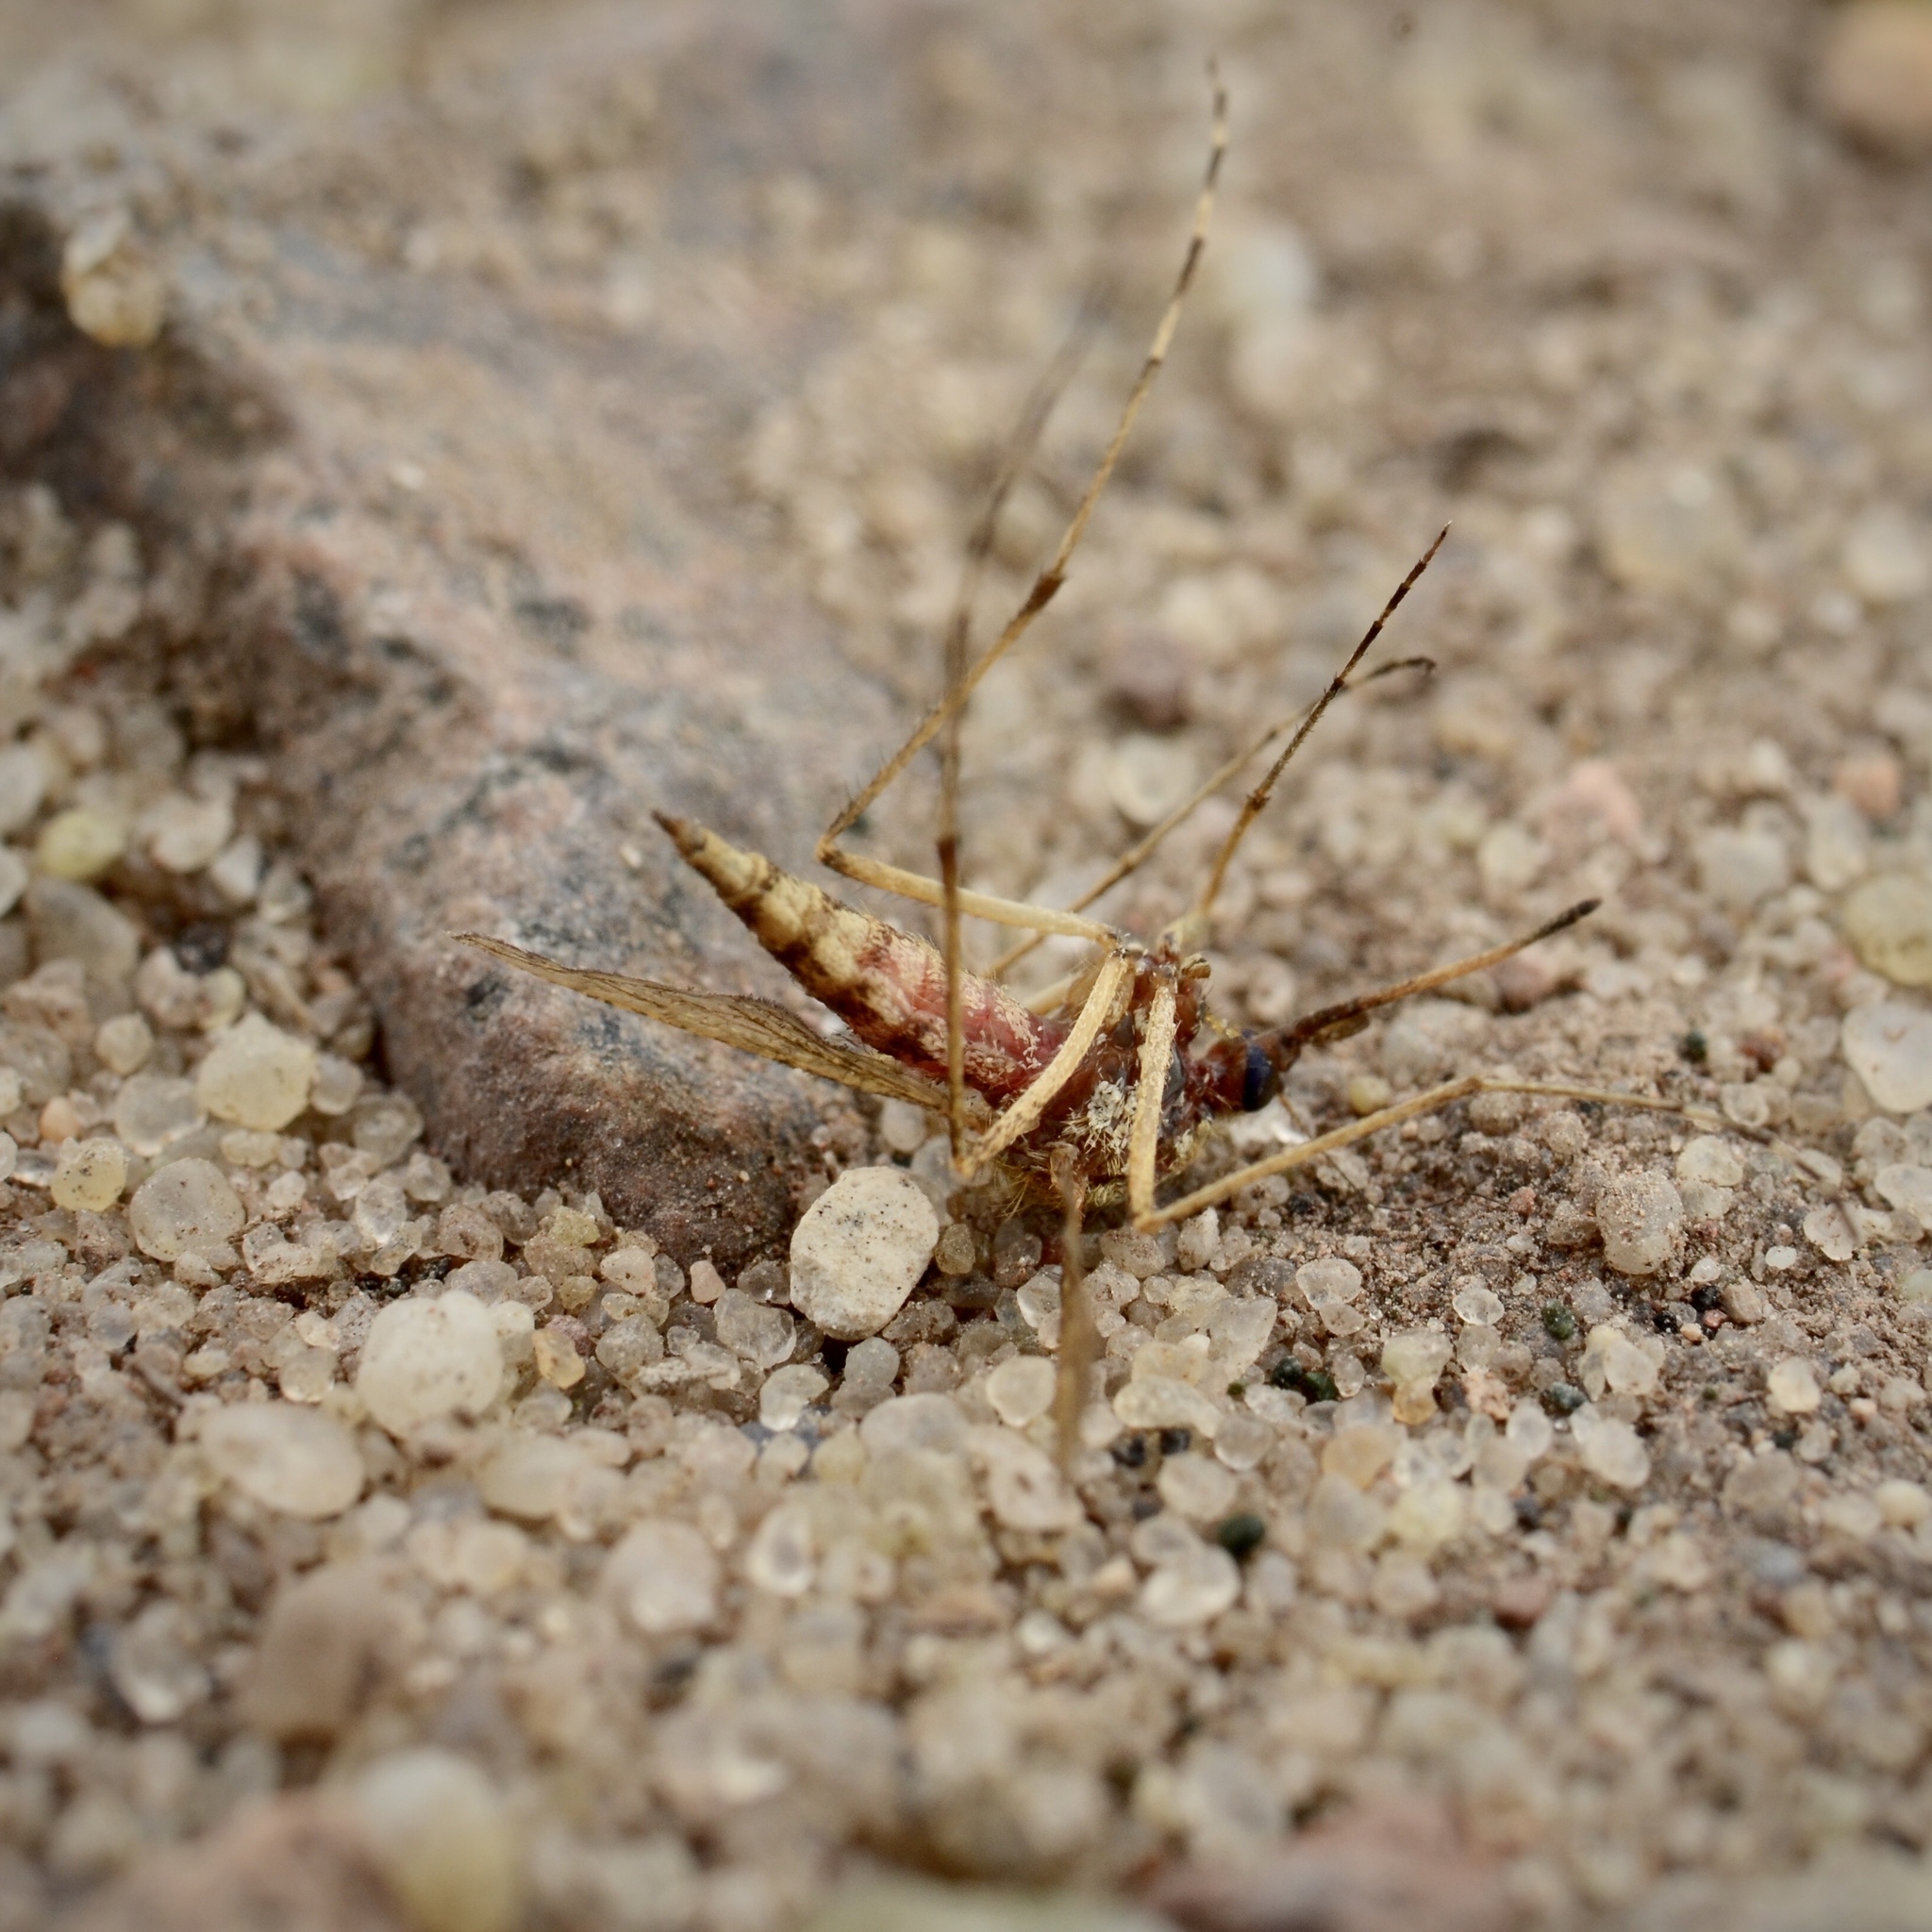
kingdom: Animalia
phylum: Arthropoda
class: Insecta
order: Diptera
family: Culicidae
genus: Aedes
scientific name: Aedes
